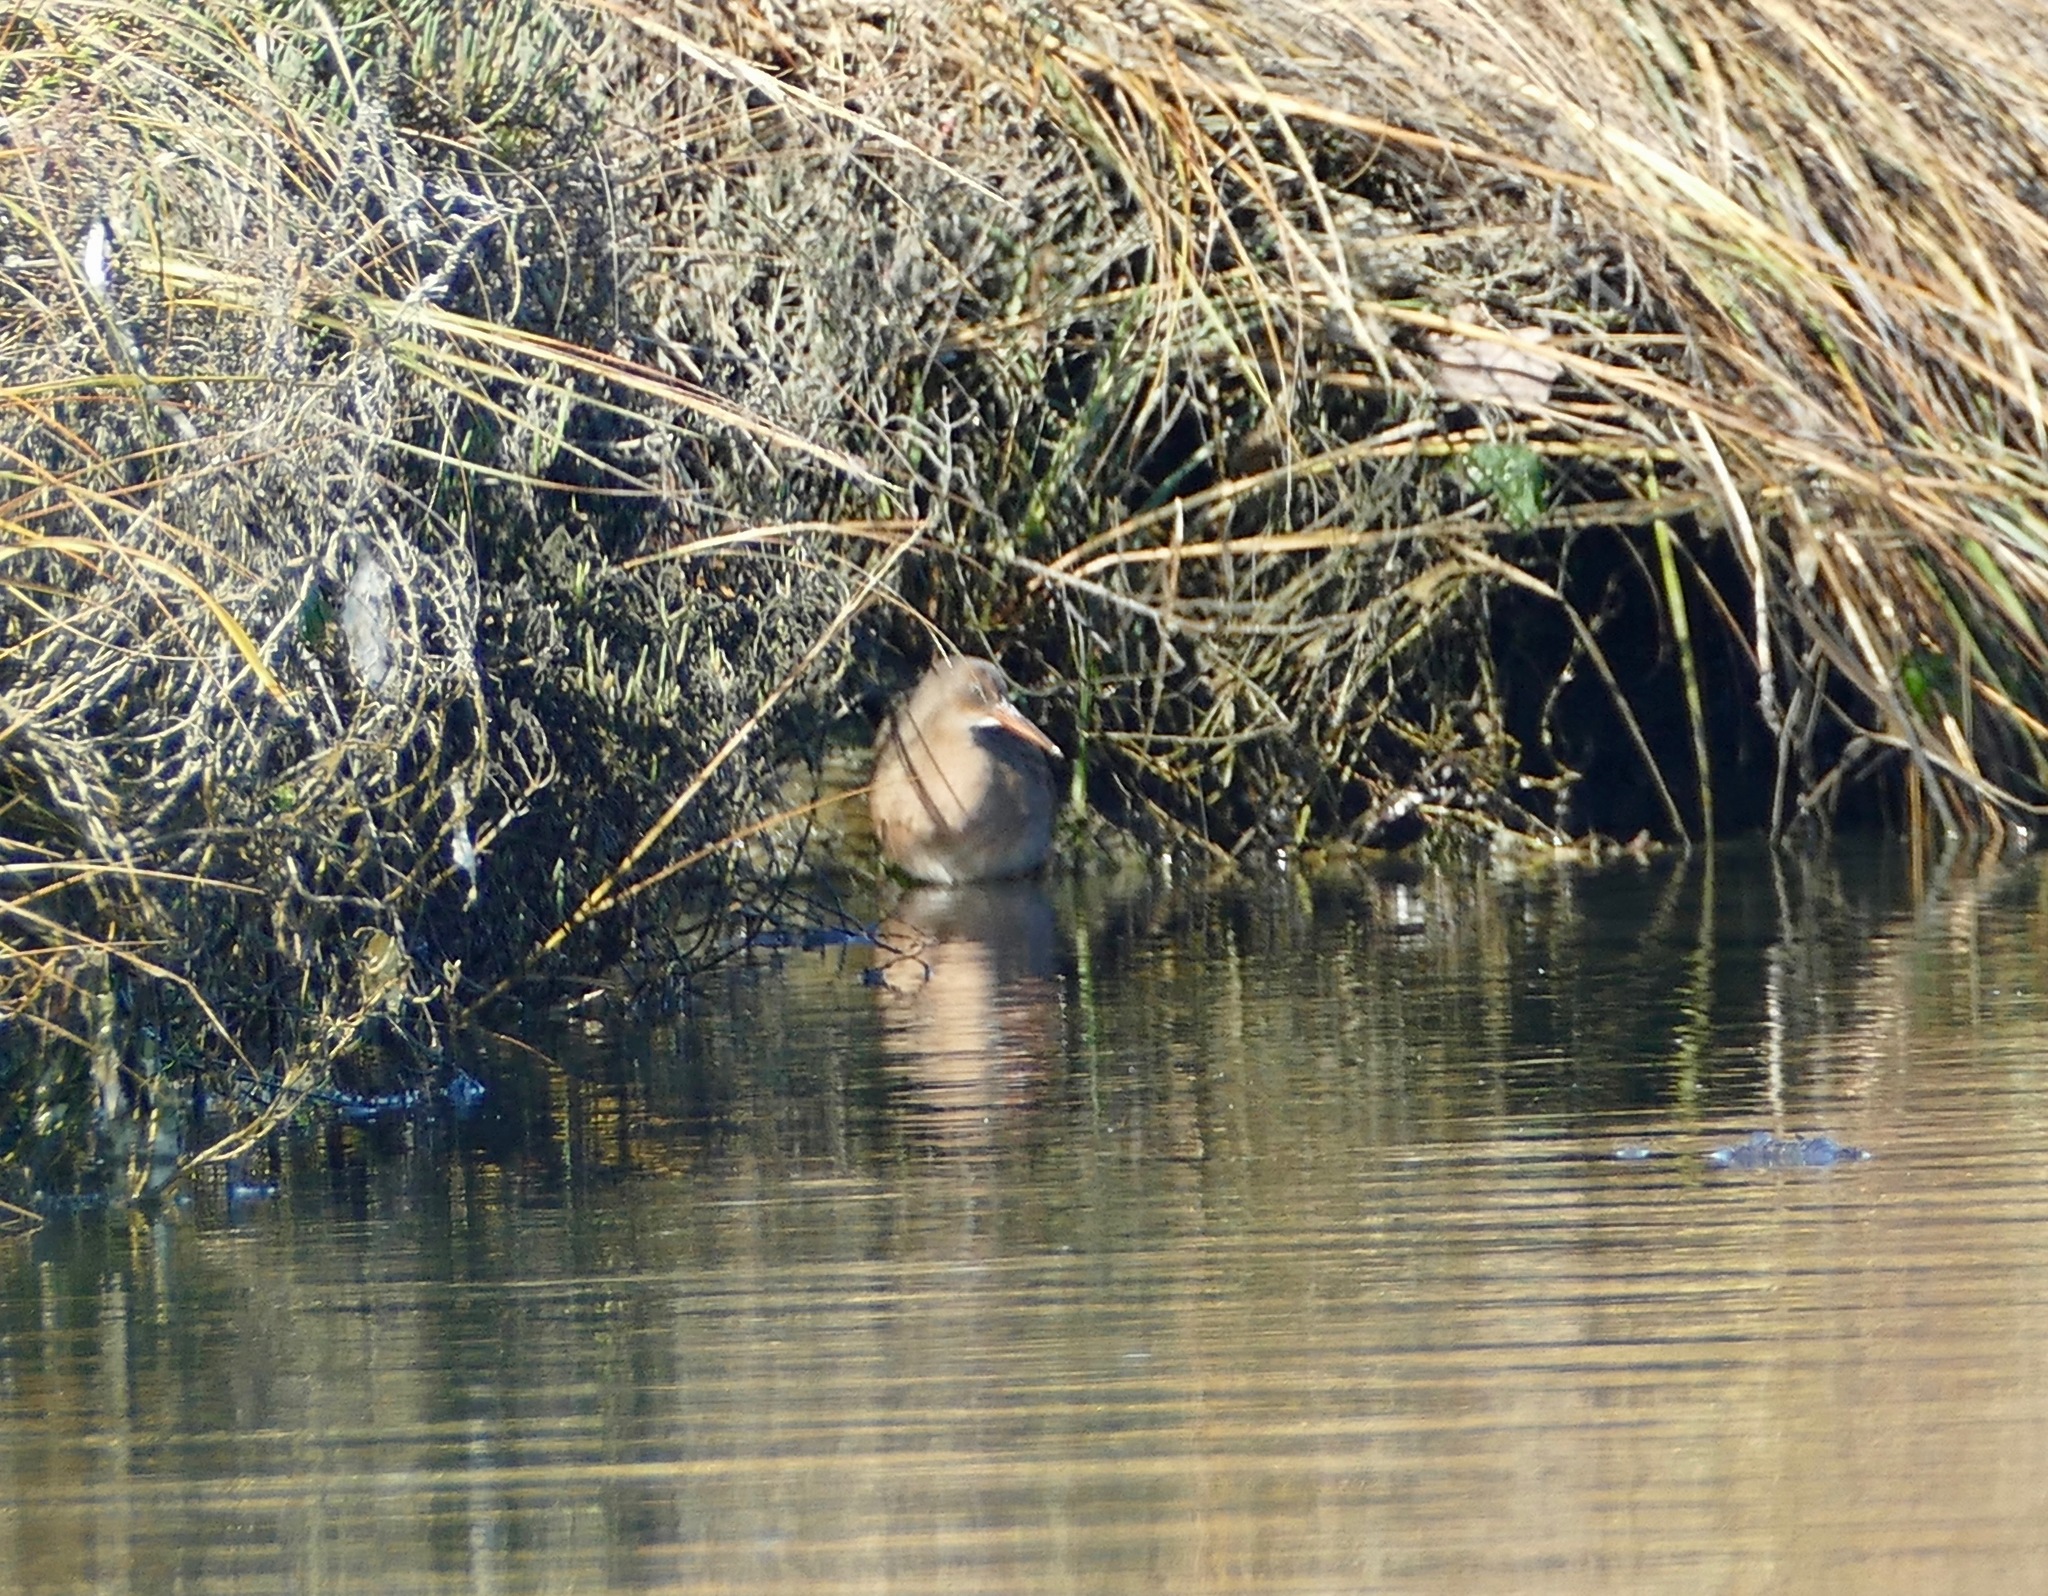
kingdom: Animalia
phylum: Chordata
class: Aves
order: Gruiformes
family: Rallidae
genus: Rallus
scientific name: Rallus obsoletus
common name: Ridgway's rail
